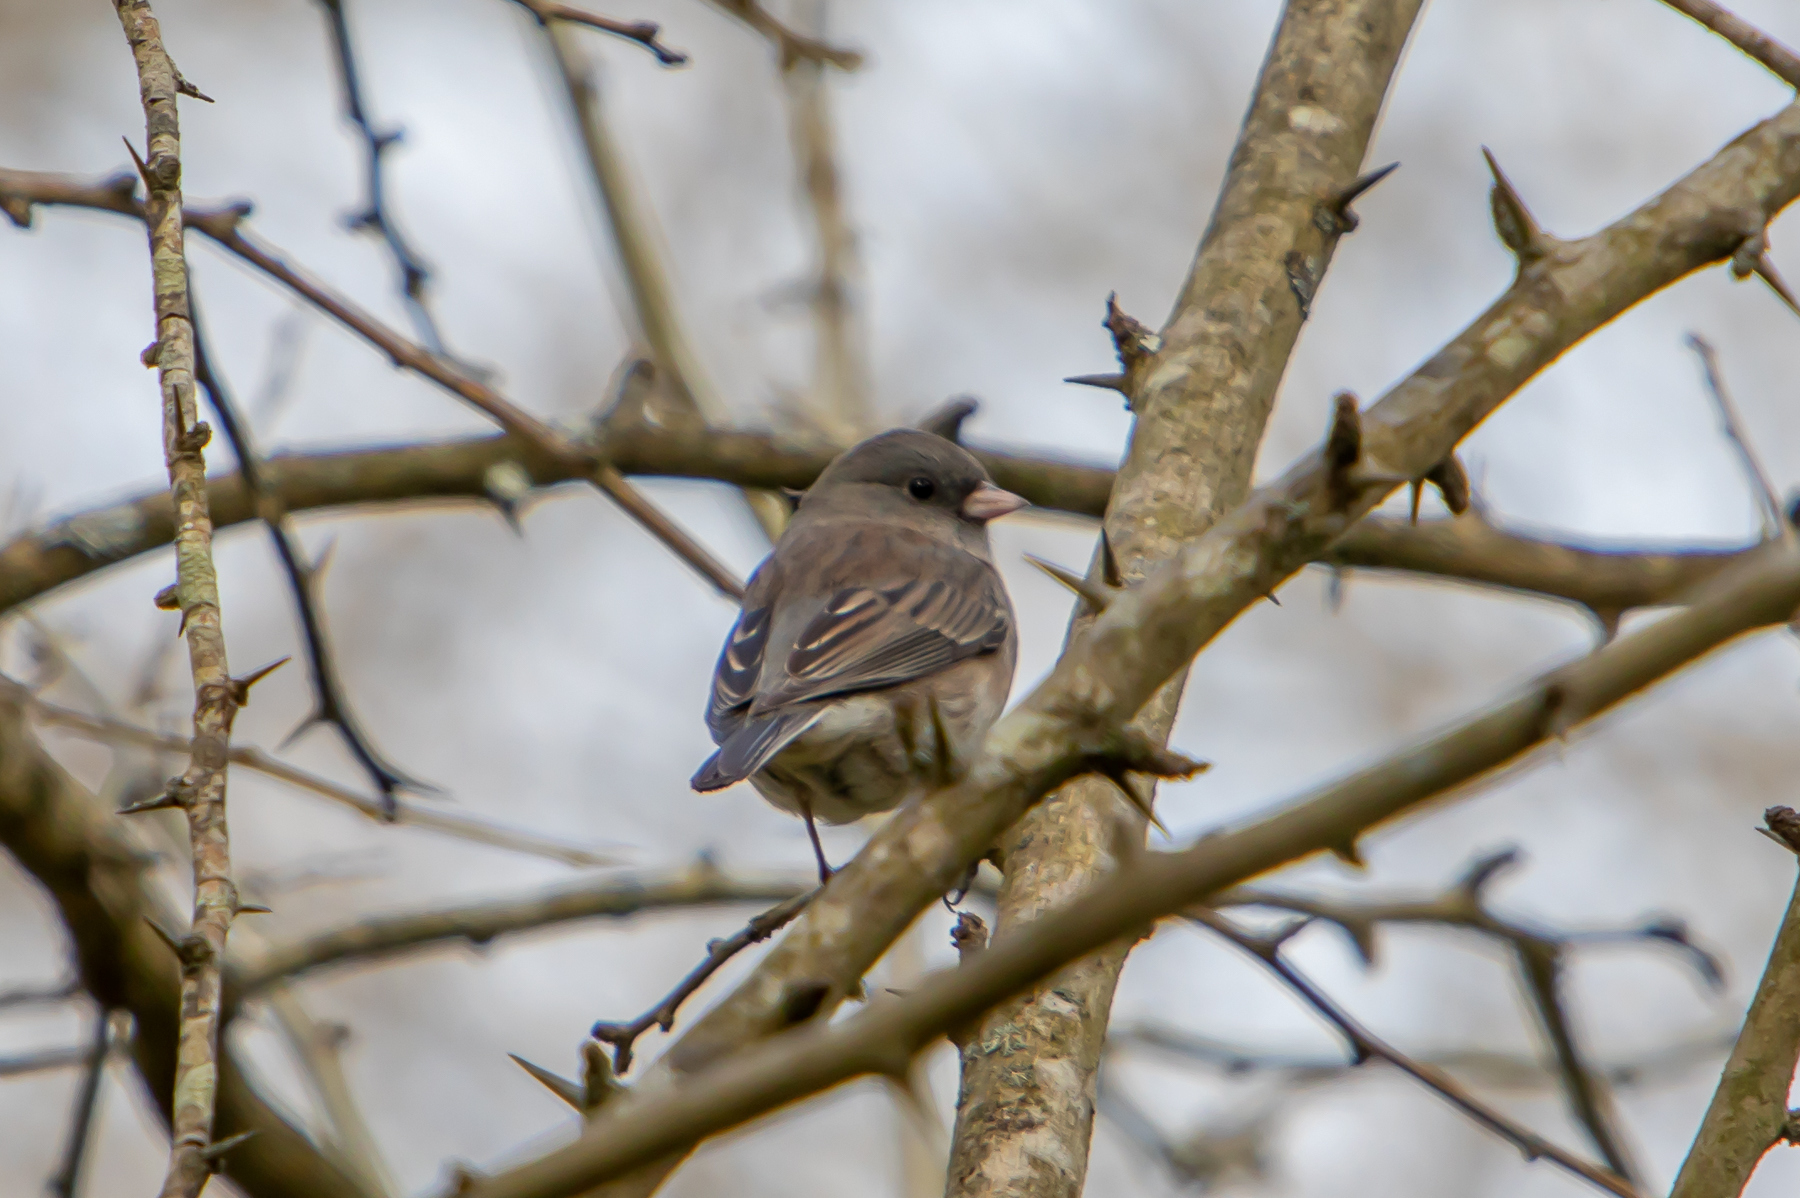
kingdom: Animalia
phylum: Chordata
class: Aves
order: Passeriformes
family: Passerellidae
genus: Junco
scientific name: Junco hyemalis
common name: Dark-eyed junco
